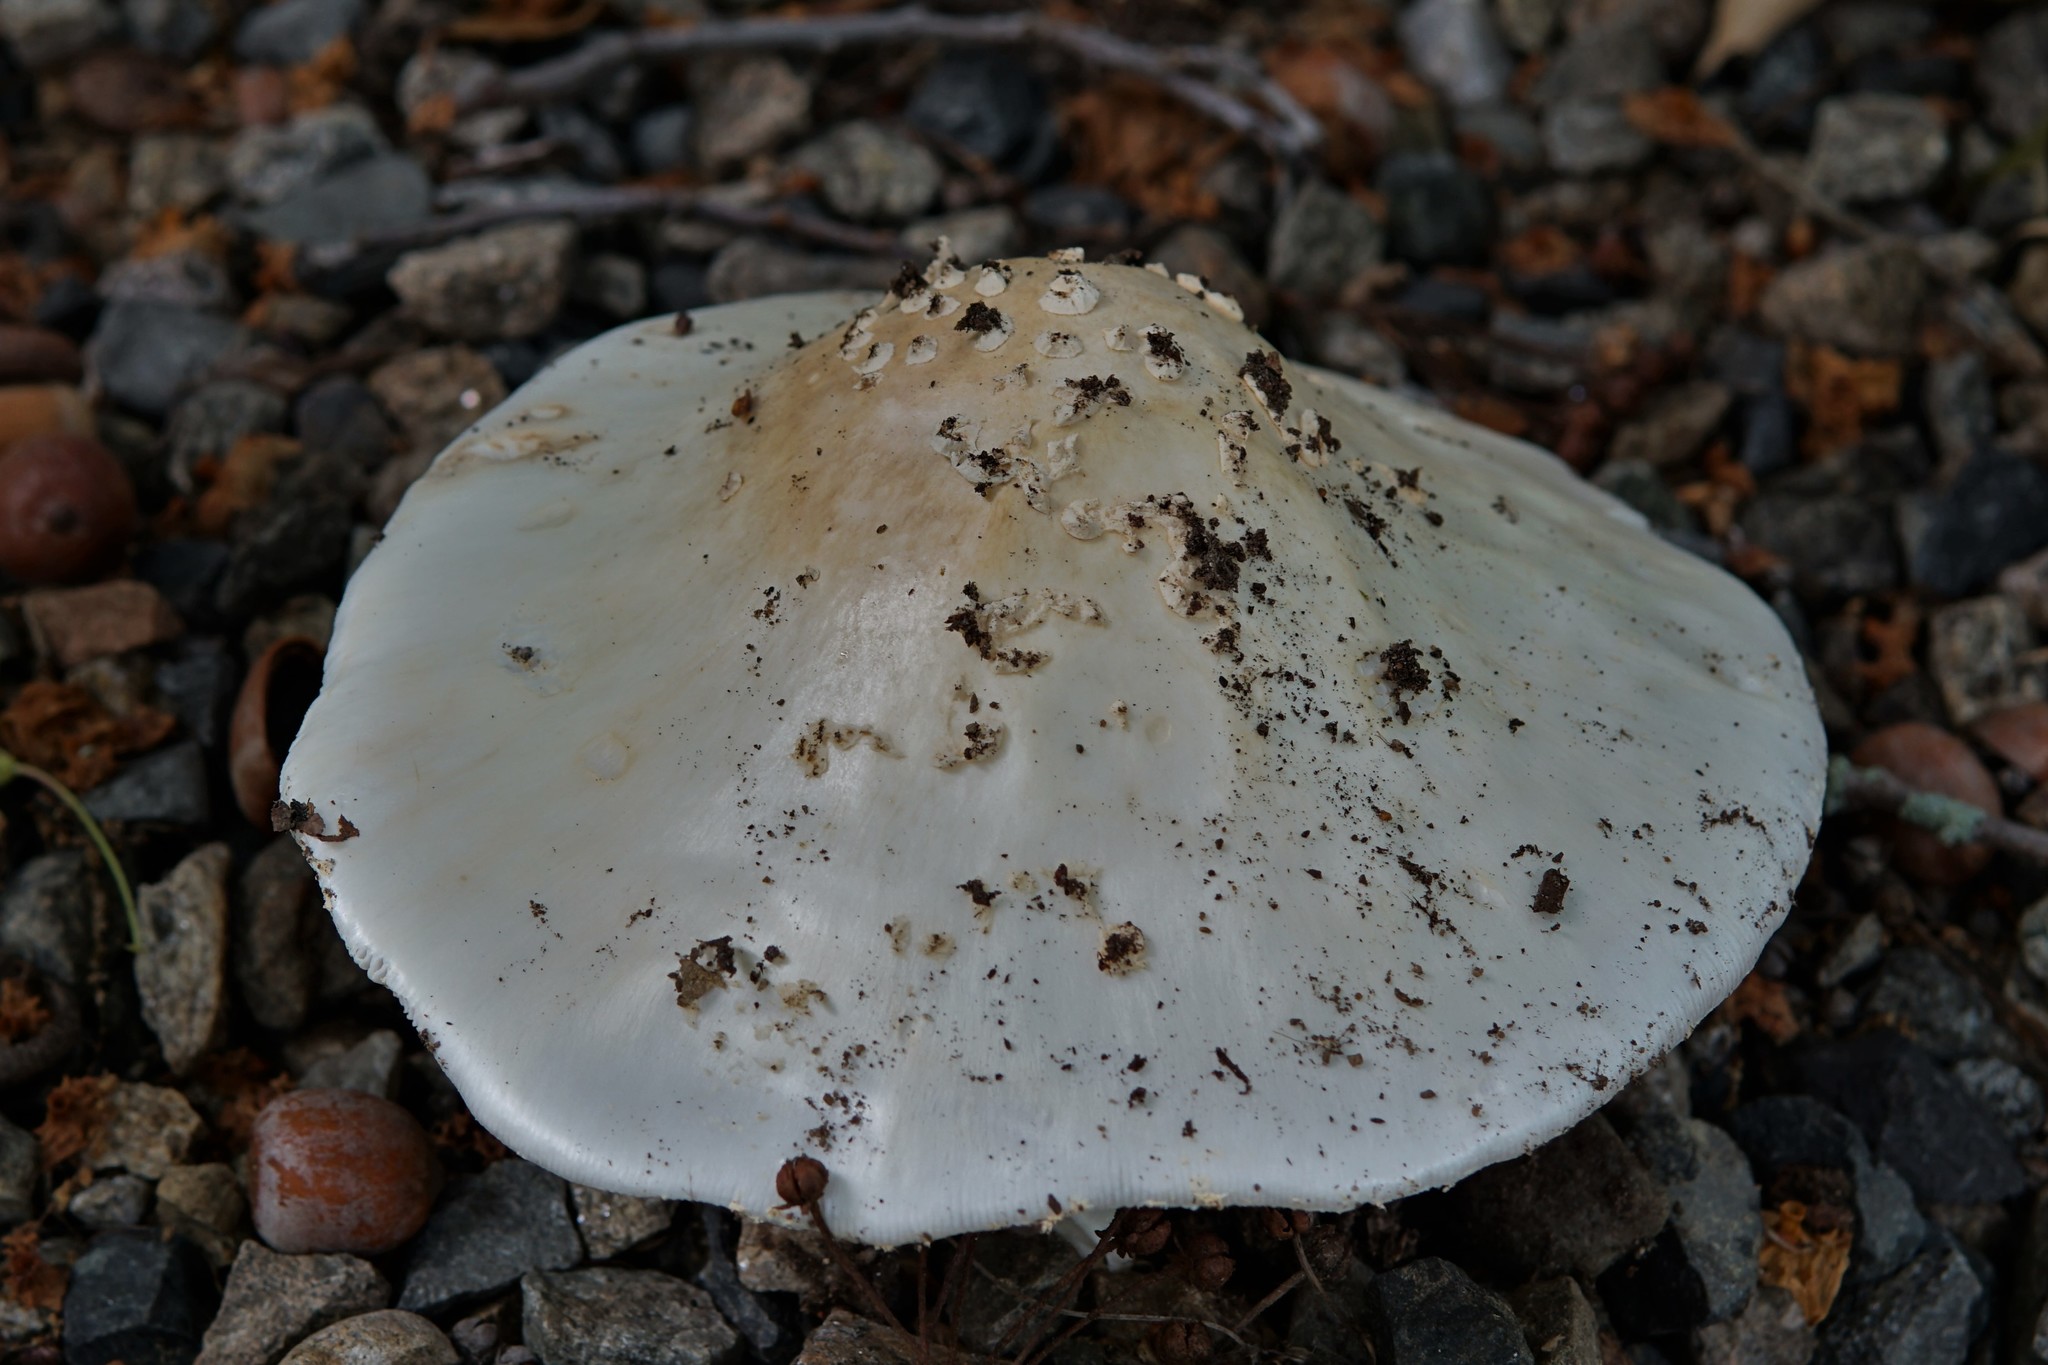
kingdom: Fungi
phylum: Basidiomycota
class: Agaricomycetes
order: Agaricales
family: Amanitaceae
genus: Amanita
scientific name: Amanita canescens
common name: Golden threads lepidella
